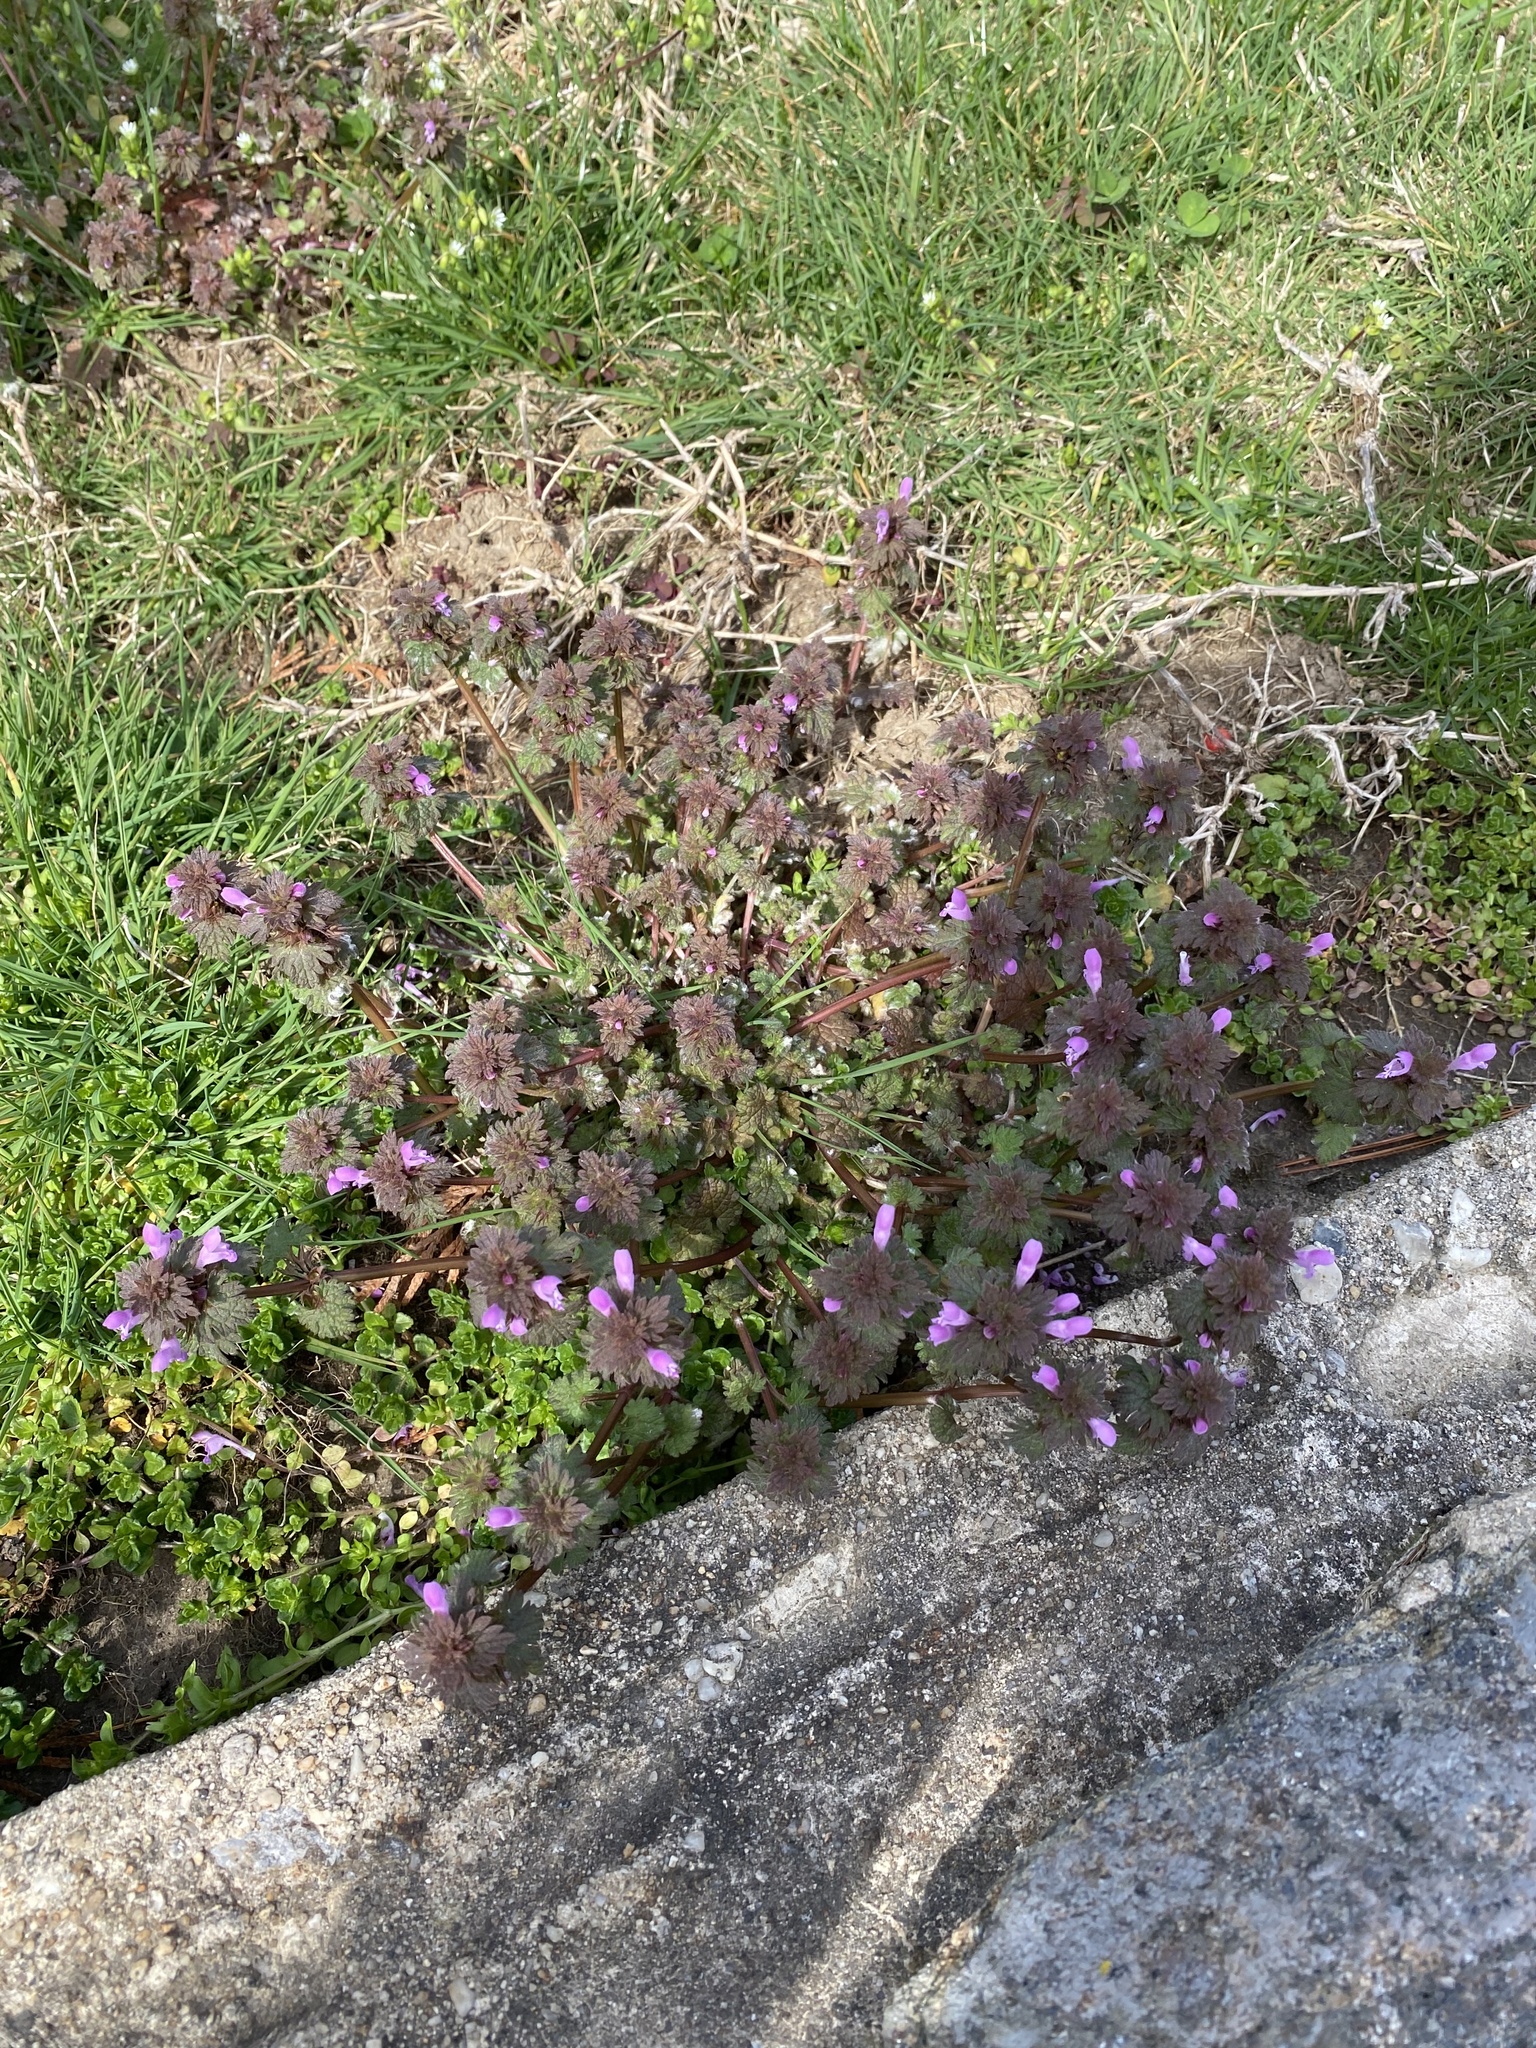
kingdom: Plantae
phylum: Tracheophyta
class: Magnoliopsida
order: Lamiales
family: Lamiaceae
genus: Lamium
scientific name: Lamium purpureum
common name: Red dead-nettle
